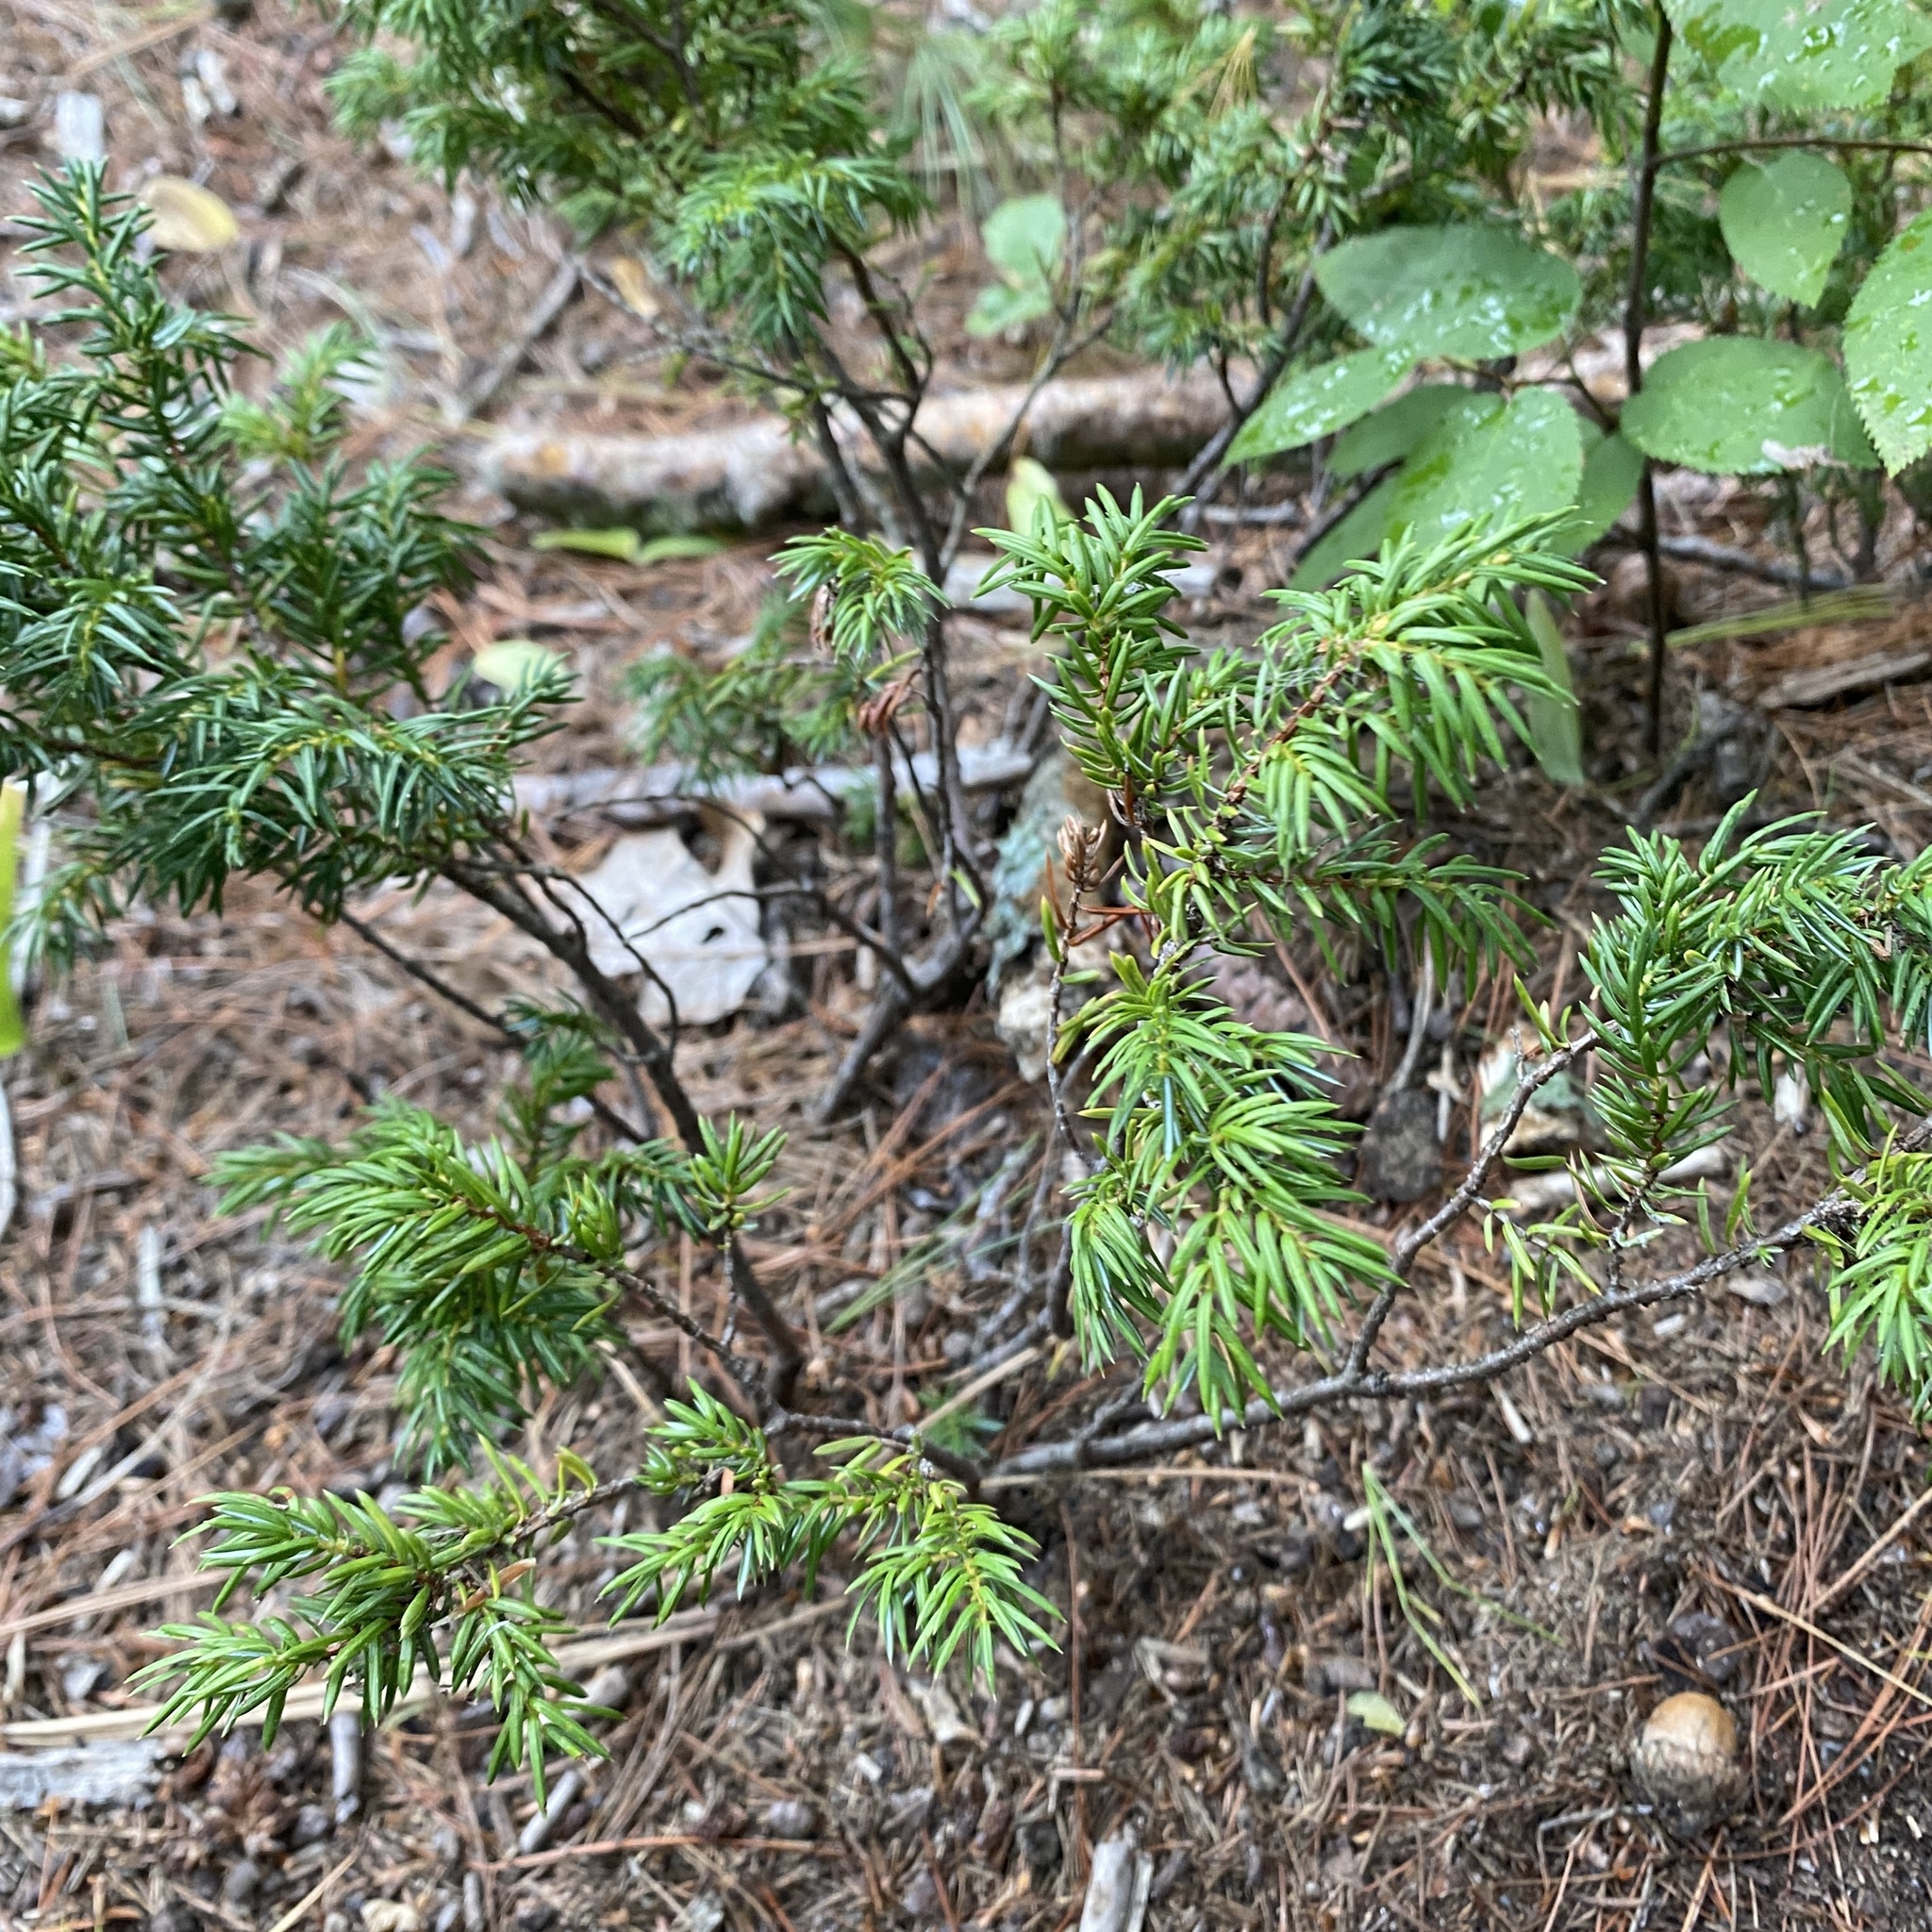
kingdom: Plantae
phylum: Tracheophyta
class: Pinopsida
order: Pinales
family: Cupressaceae
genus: Juniperus
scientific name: Juniperus communis
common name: Common juniper
